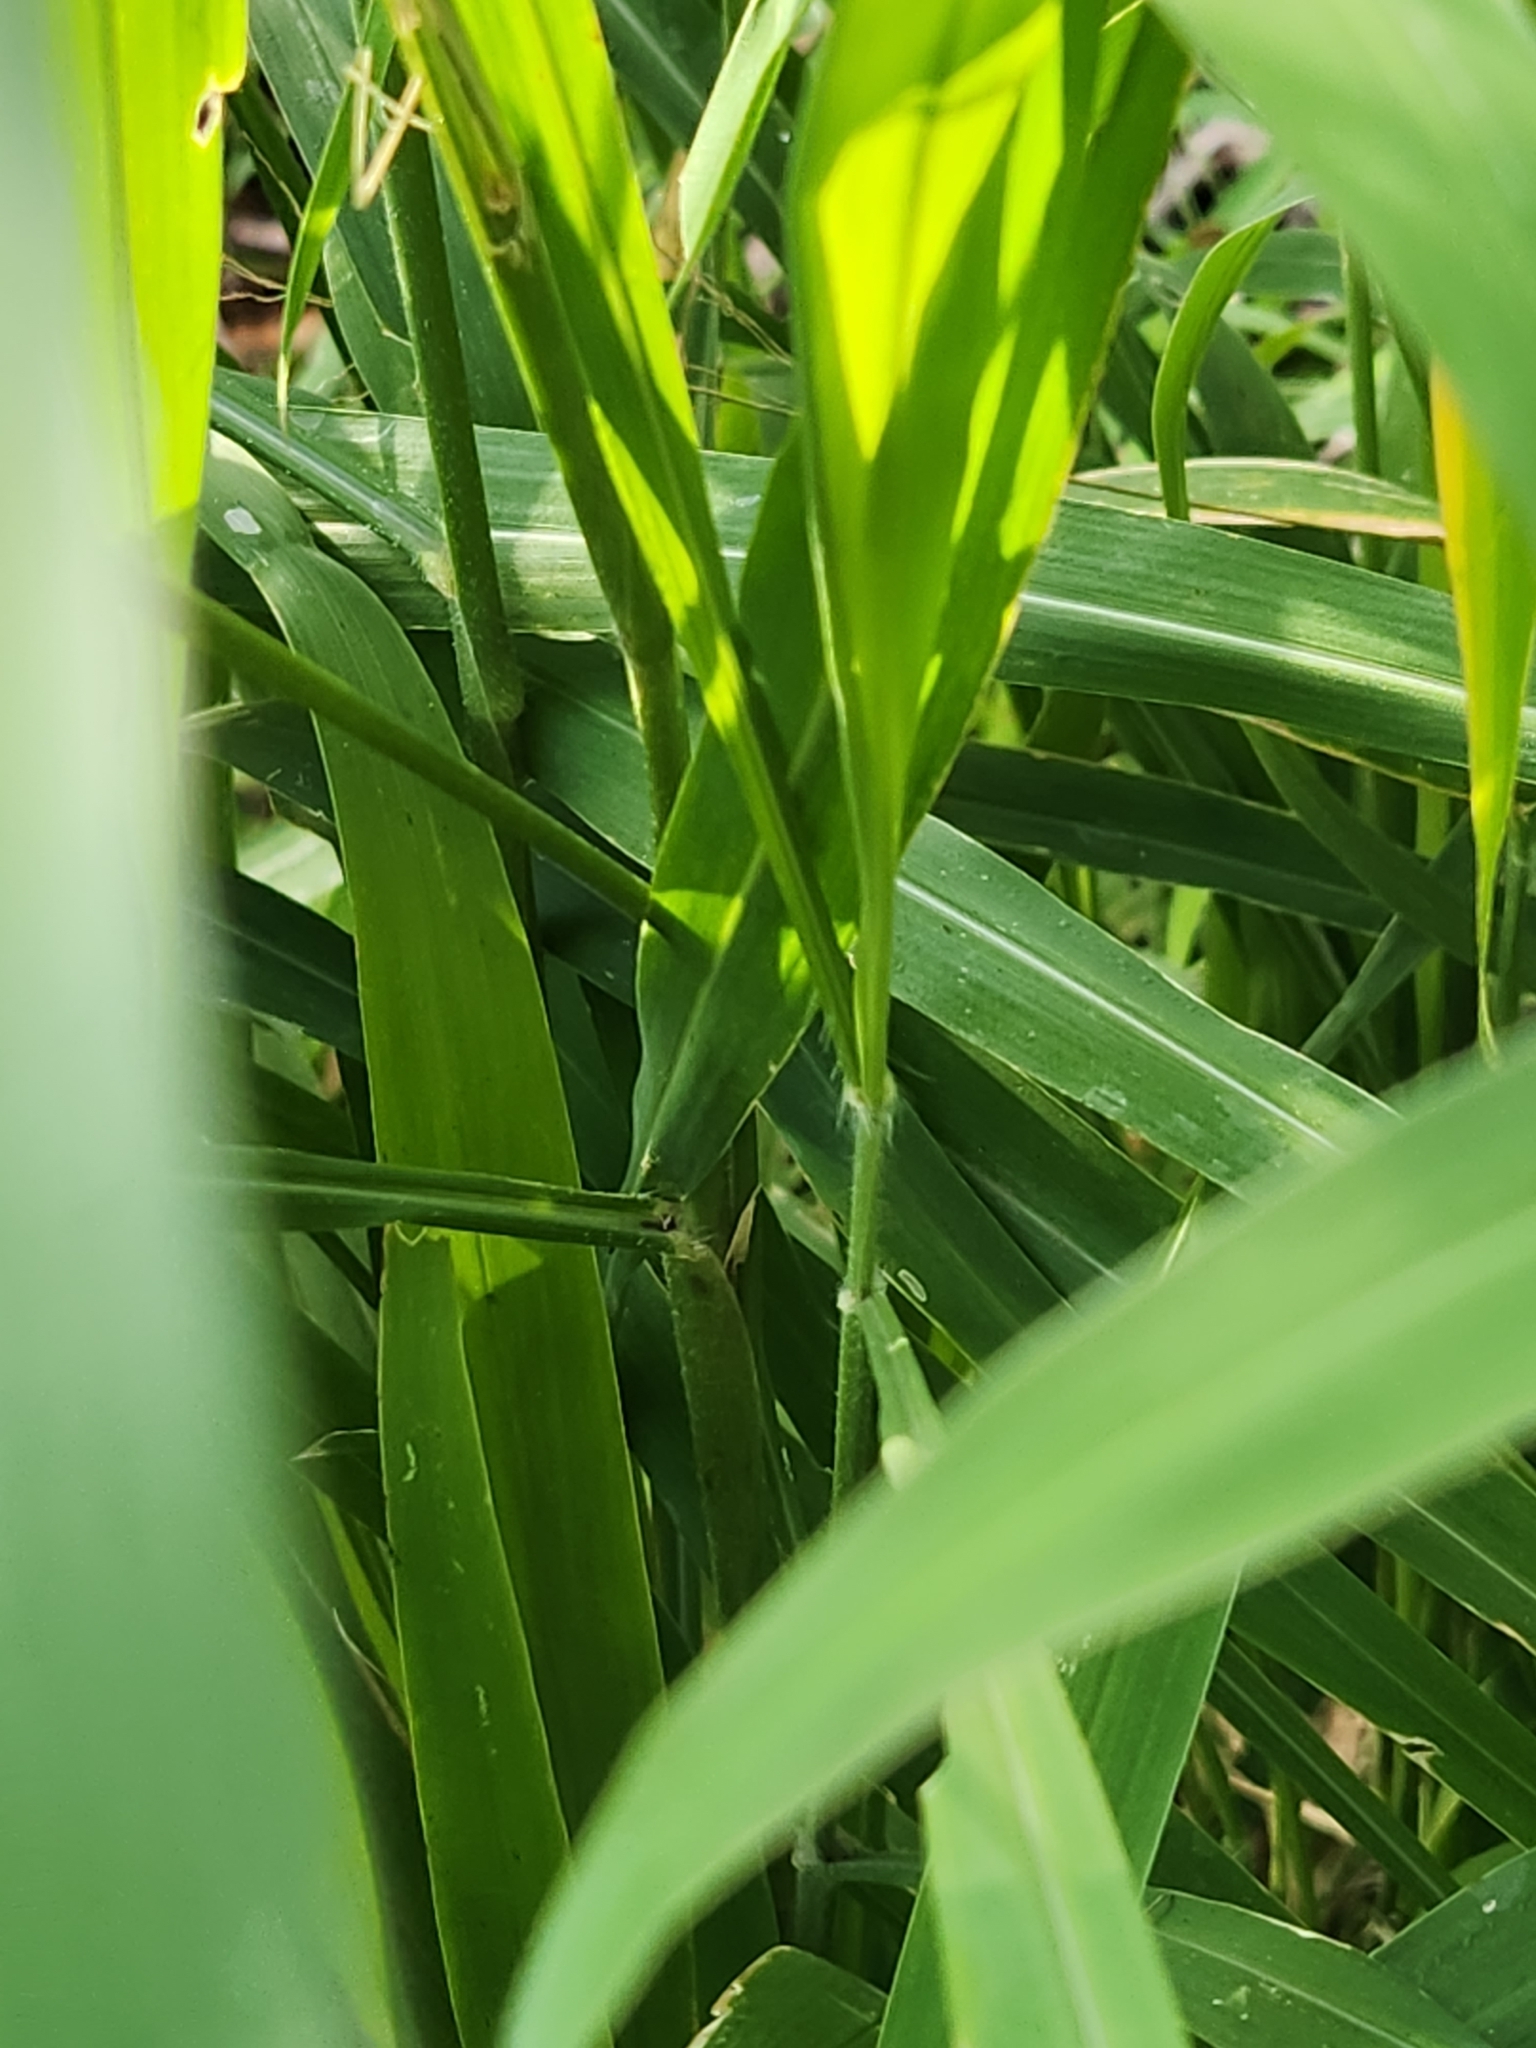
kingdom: Plantae
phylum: Tracheophyta
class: Liliopsida
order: Poales
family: Poaceae
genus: Megathyrsus
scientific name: Megathyrsus maximus
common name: Guineagrass
